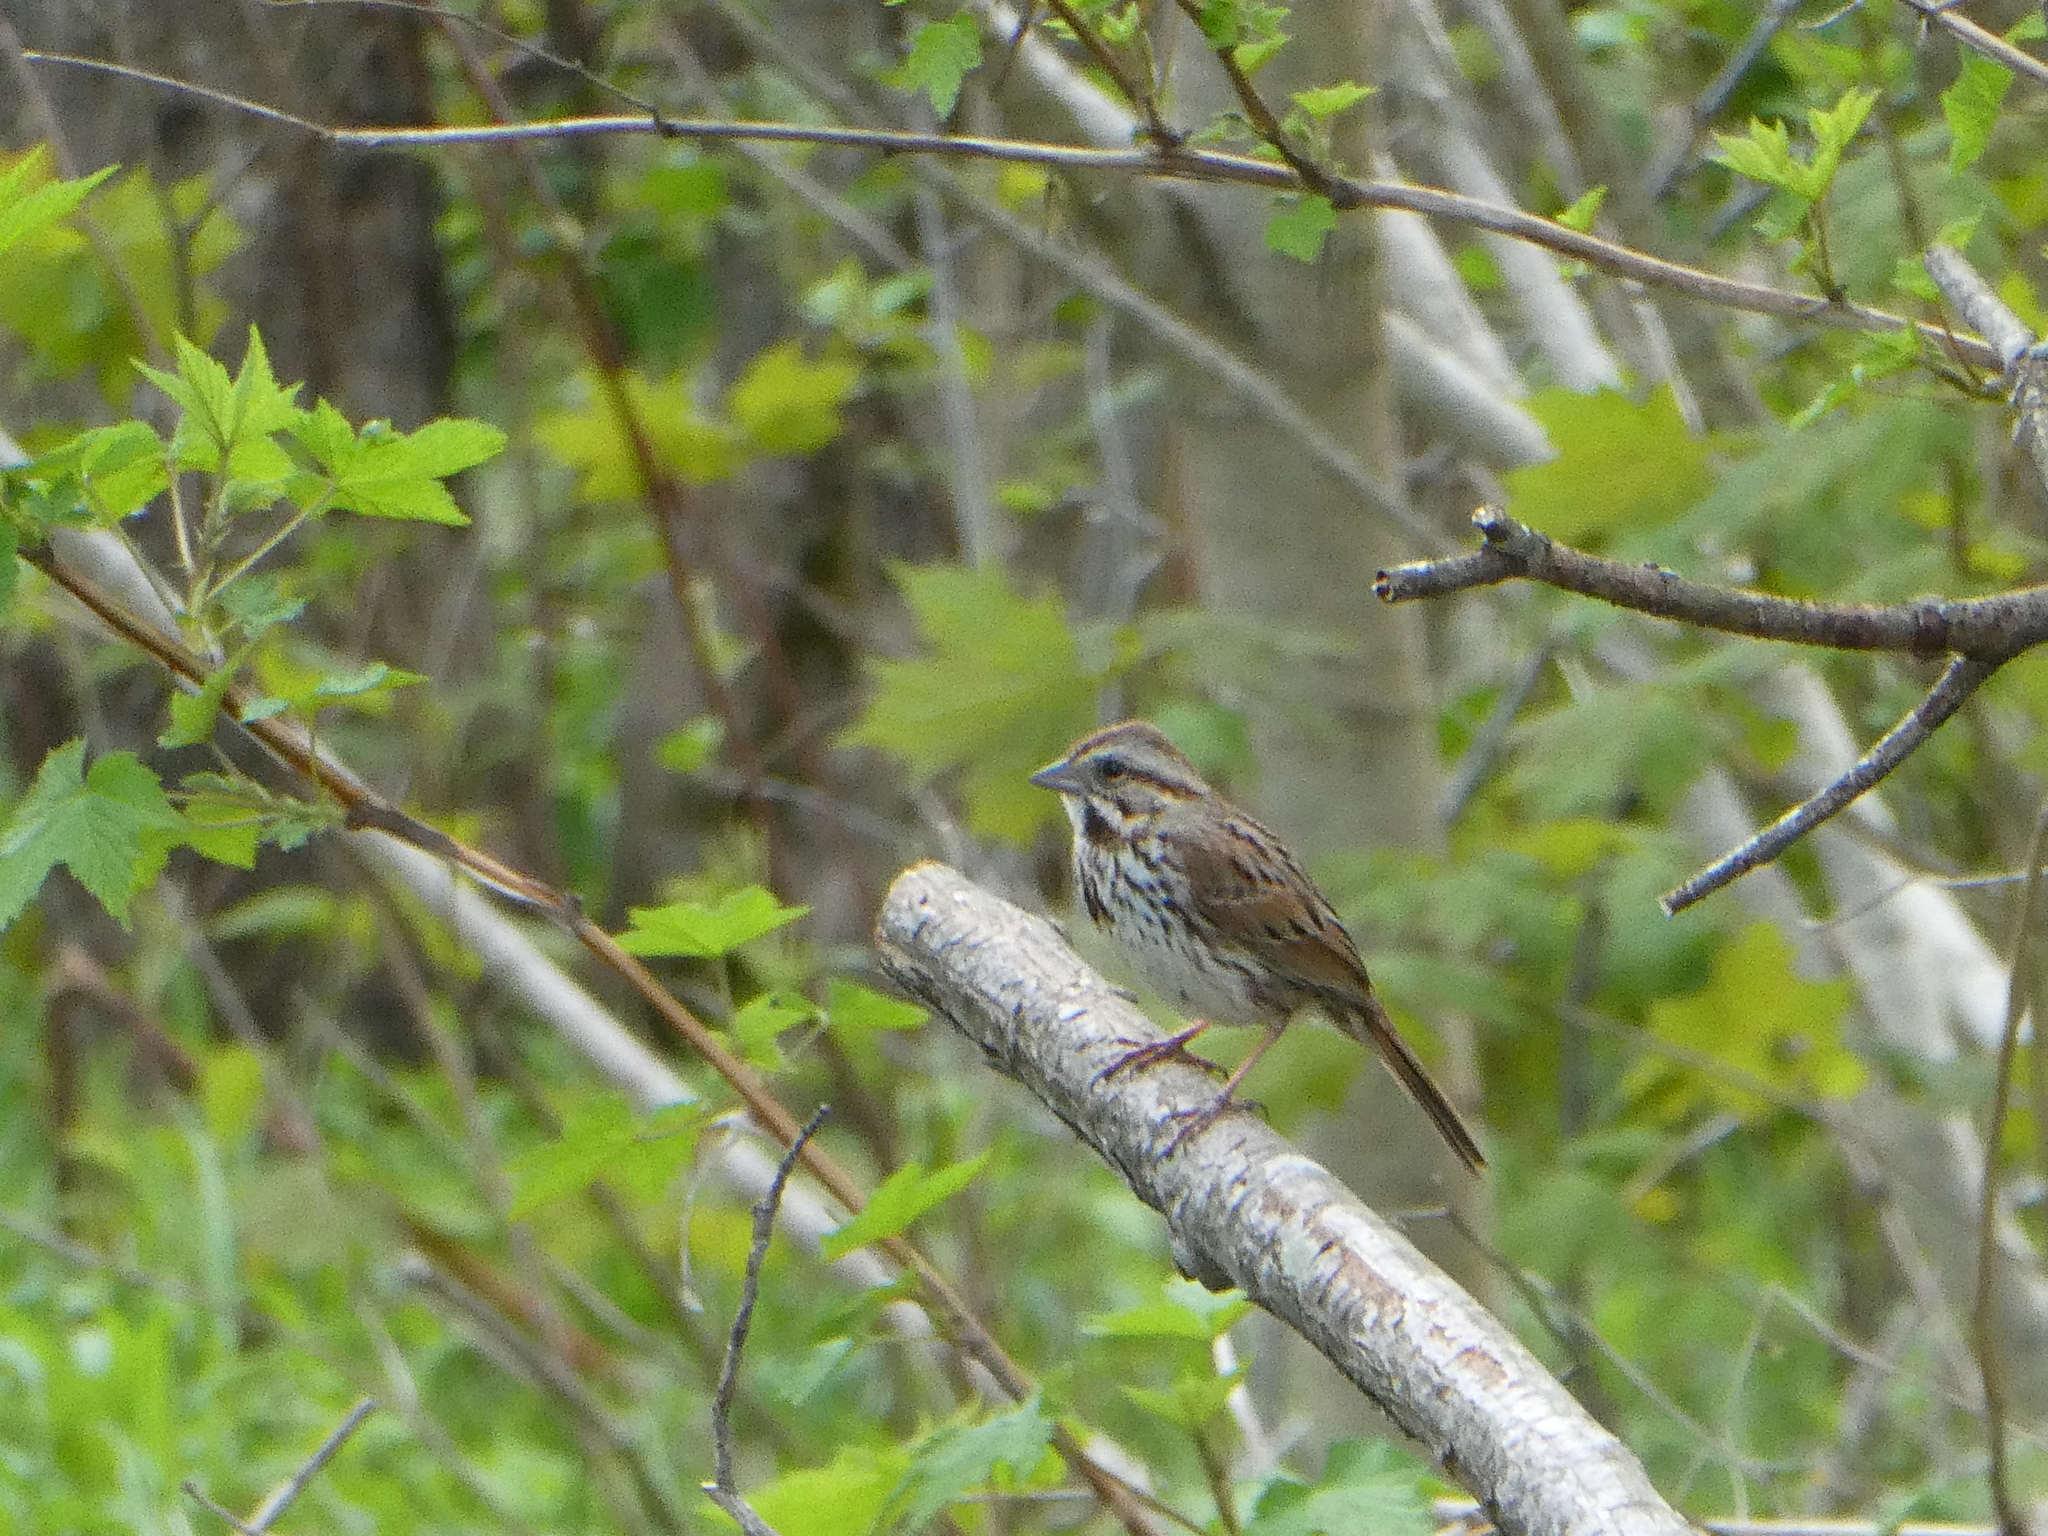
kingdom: Animalia
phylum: Chordata
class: Aves
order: Passeriformes
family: Passerellidae
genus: Melospiza
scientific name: Melospiza melodia
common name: Song sparrow
